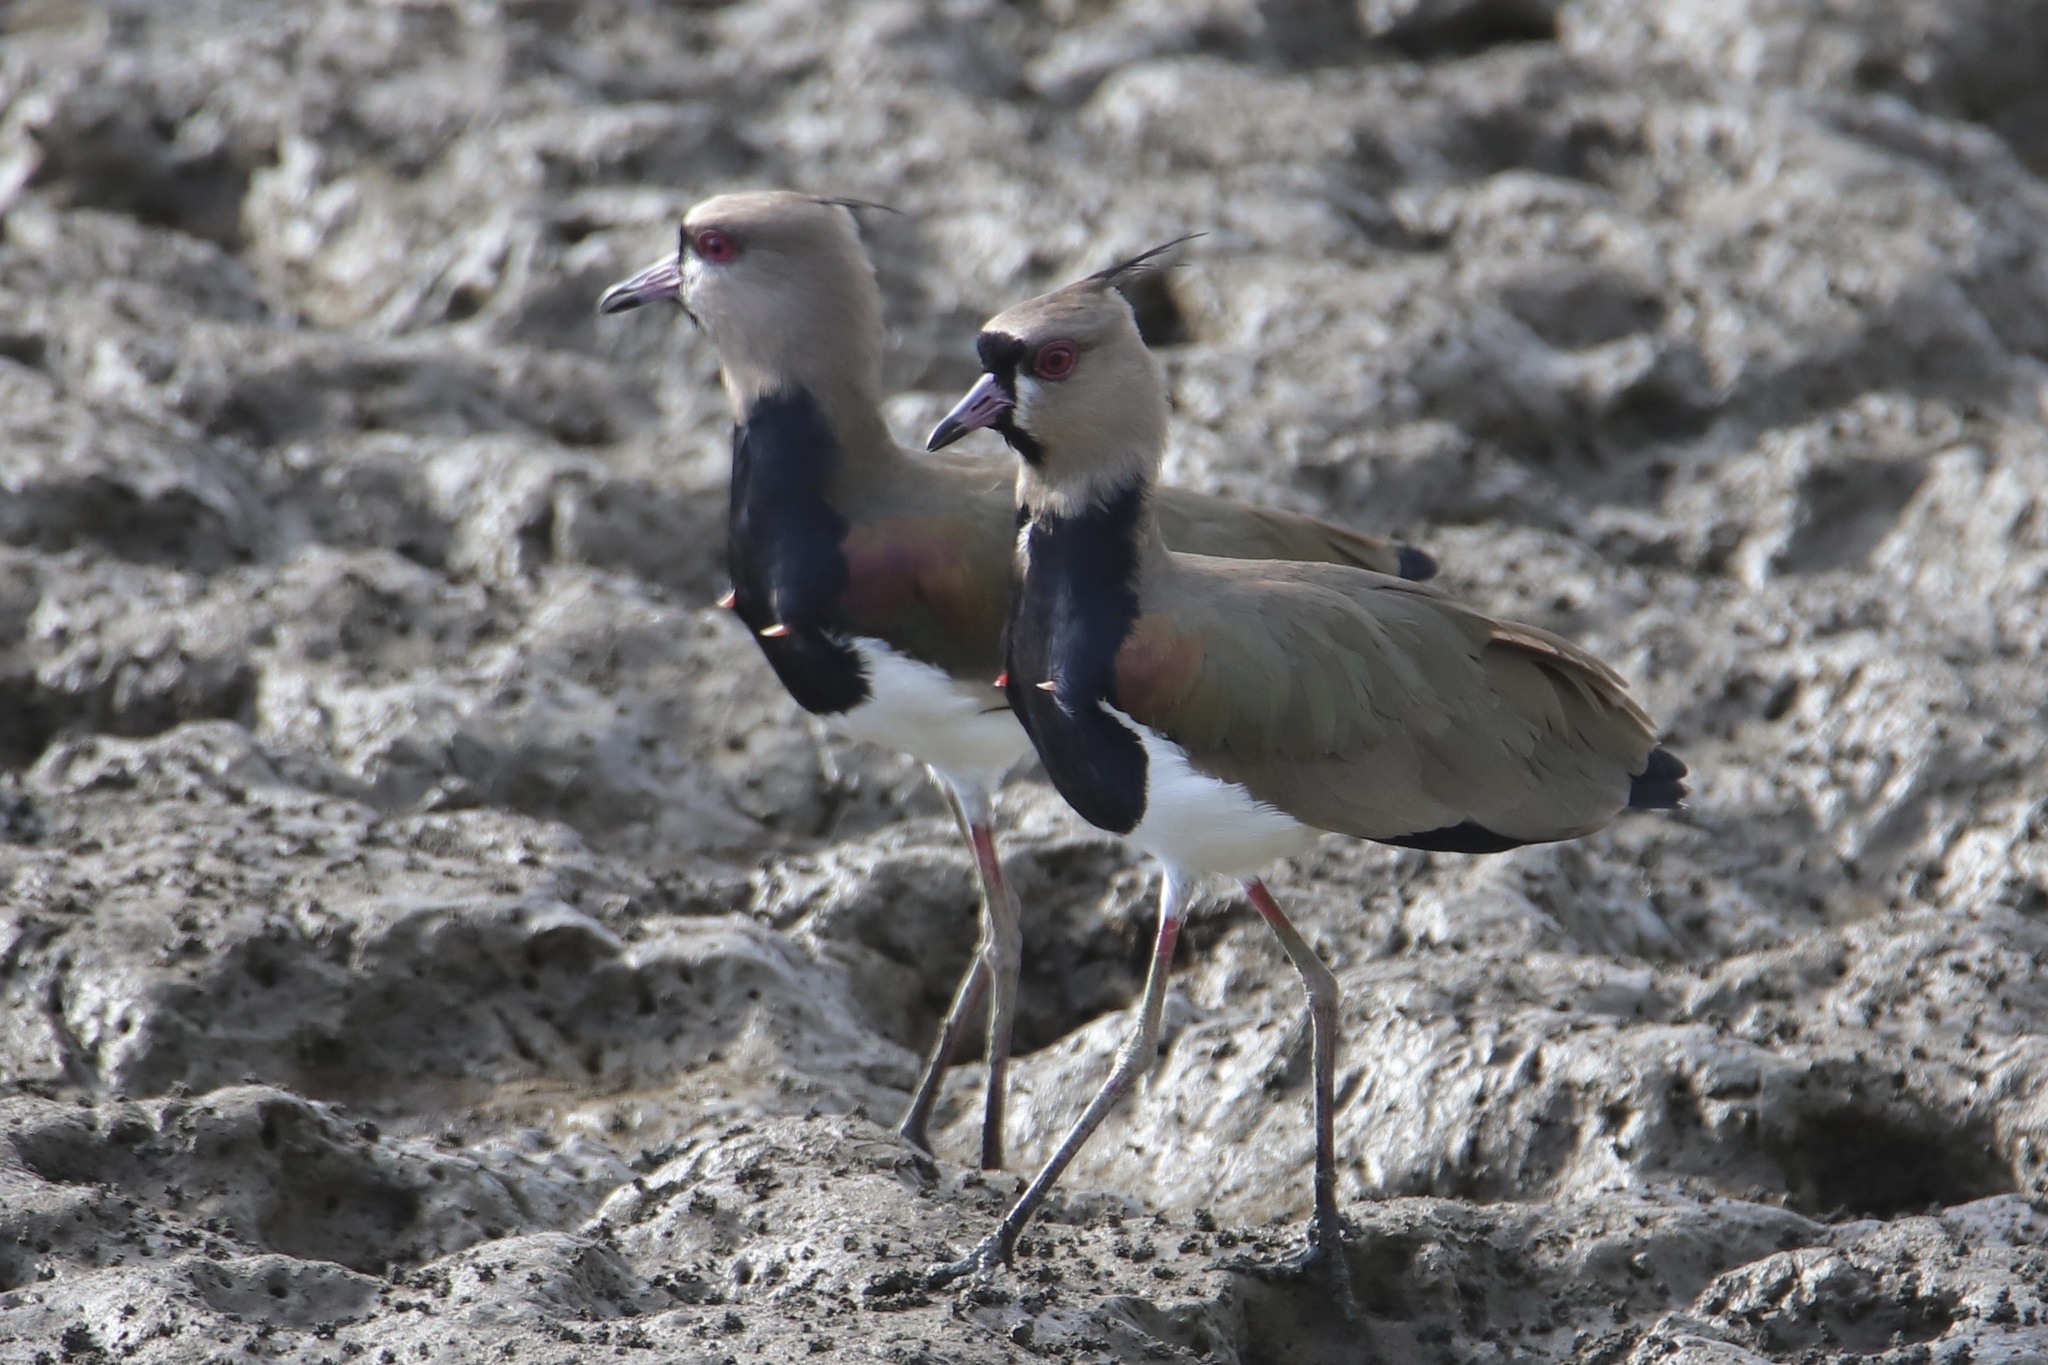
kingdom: Animalia
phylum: Chordata
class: Aves
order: Charadriiformes
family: Charadriidae
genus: Vanellus
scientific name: Vanellus chilensis
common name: Southern lapwing
